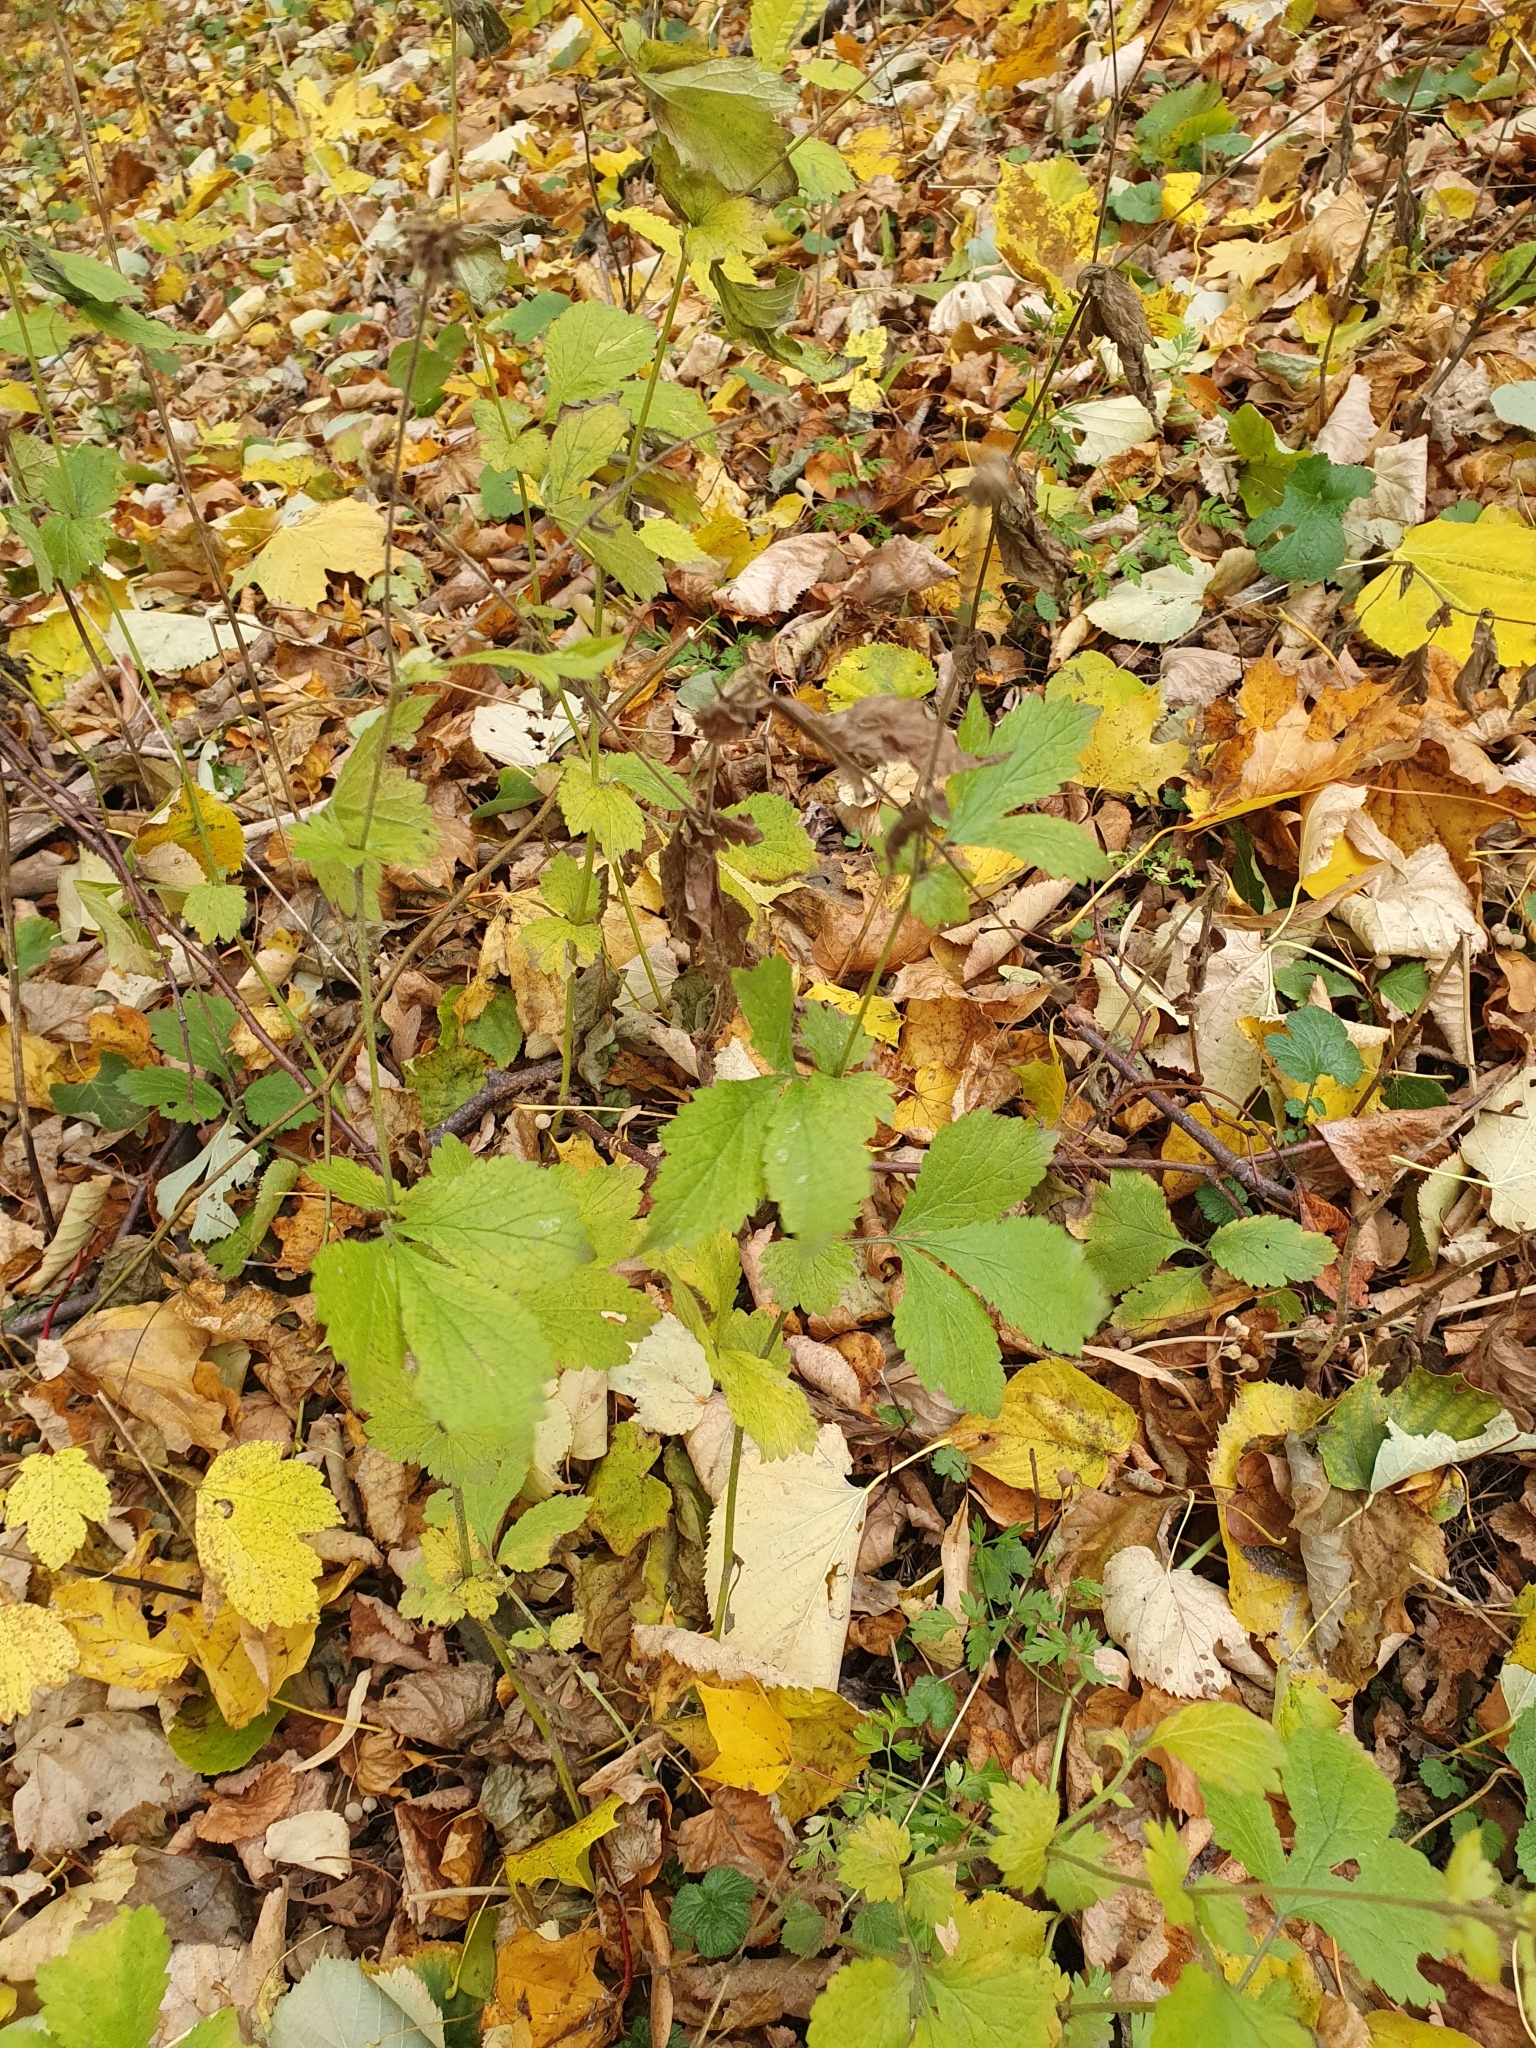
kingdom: Plantae
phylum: Tracheophyta
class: Magnoliopsida
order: Rosales
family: Rosaceae
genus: Geum
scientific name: Geum urbanum
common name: Wood avens
